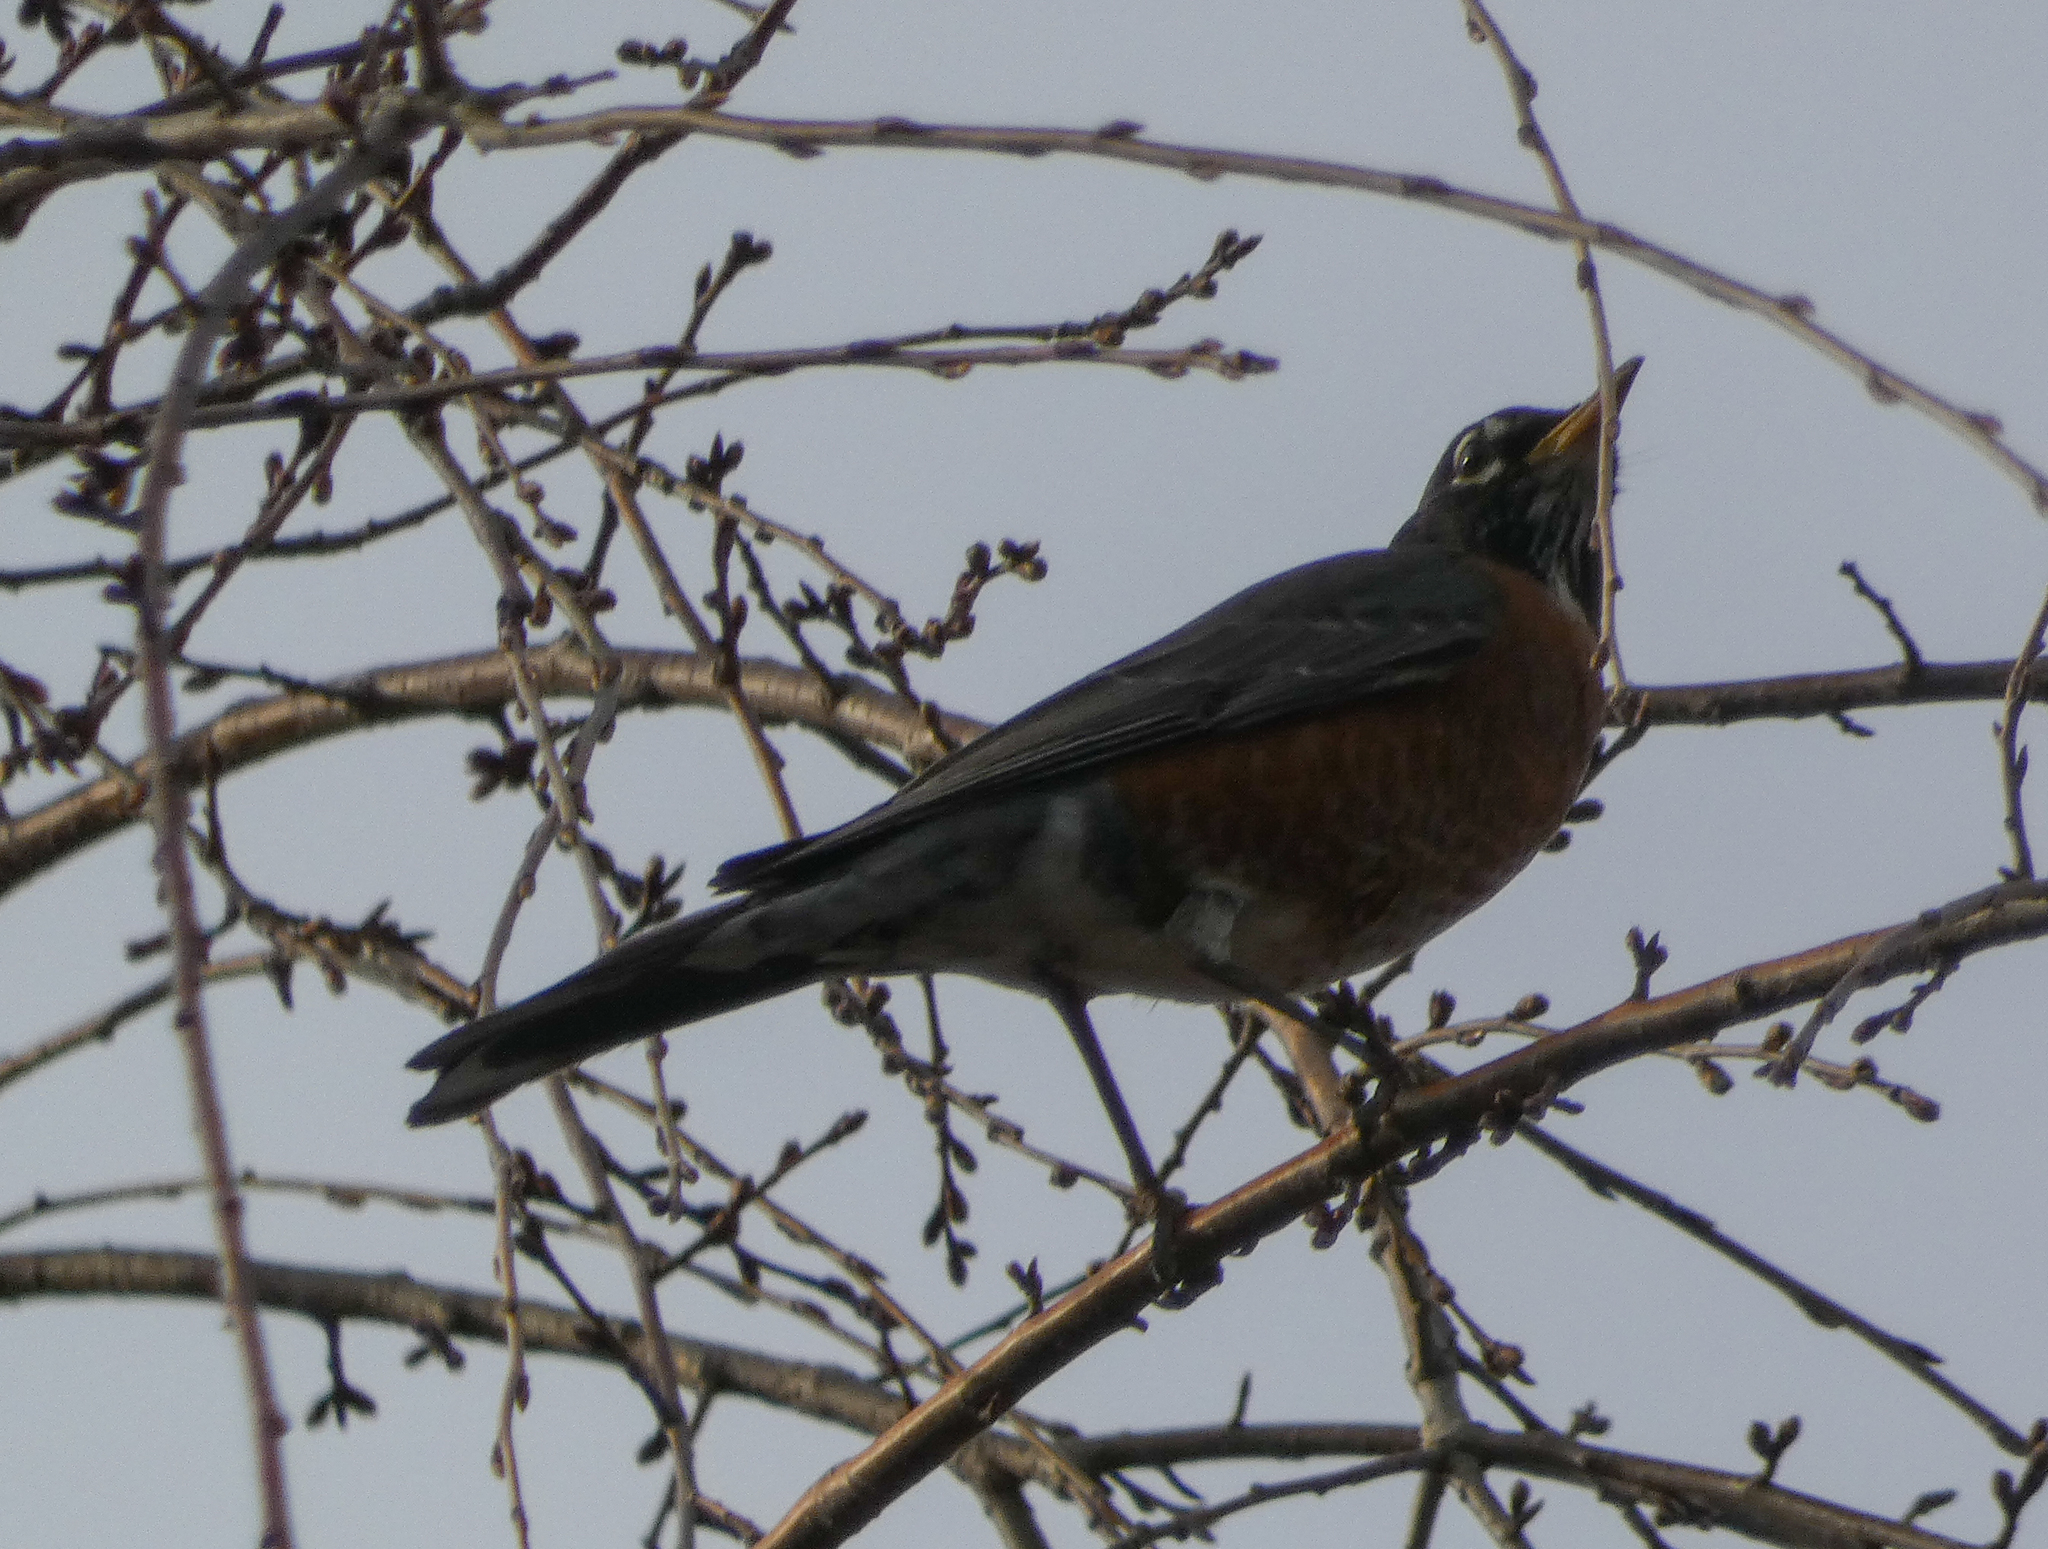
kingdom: Animalia
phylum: Chordata
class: Aves
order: Passeriformes
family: Turdidae
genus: Turdus
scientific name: Turdus migratorius
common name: American robin
